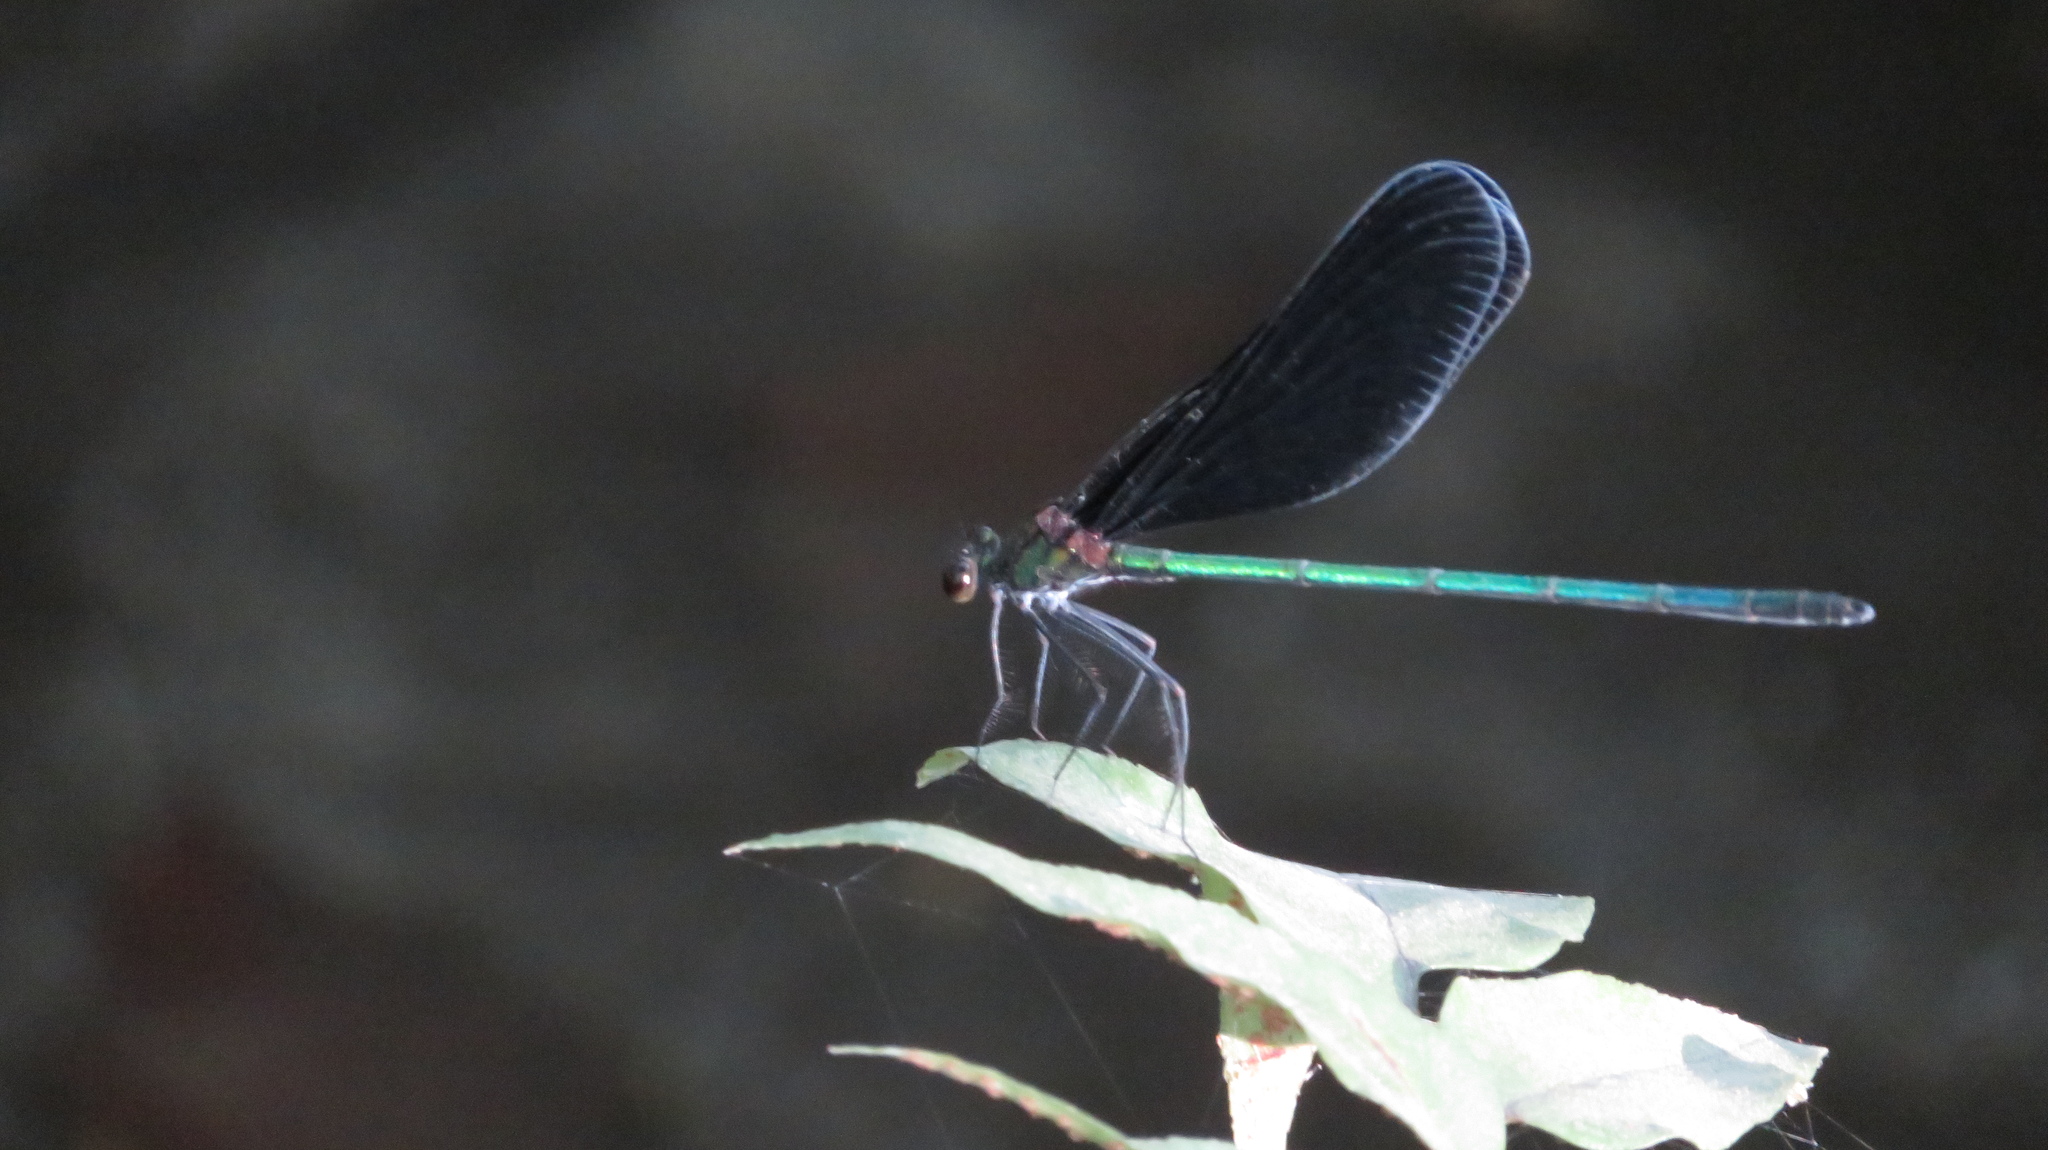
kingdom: Animalia
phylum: Arthropoda
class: Insecta
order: Odonata
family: Calopterygidae
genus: Atrocalopteryx
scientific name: Atrocalopteryx atrata
